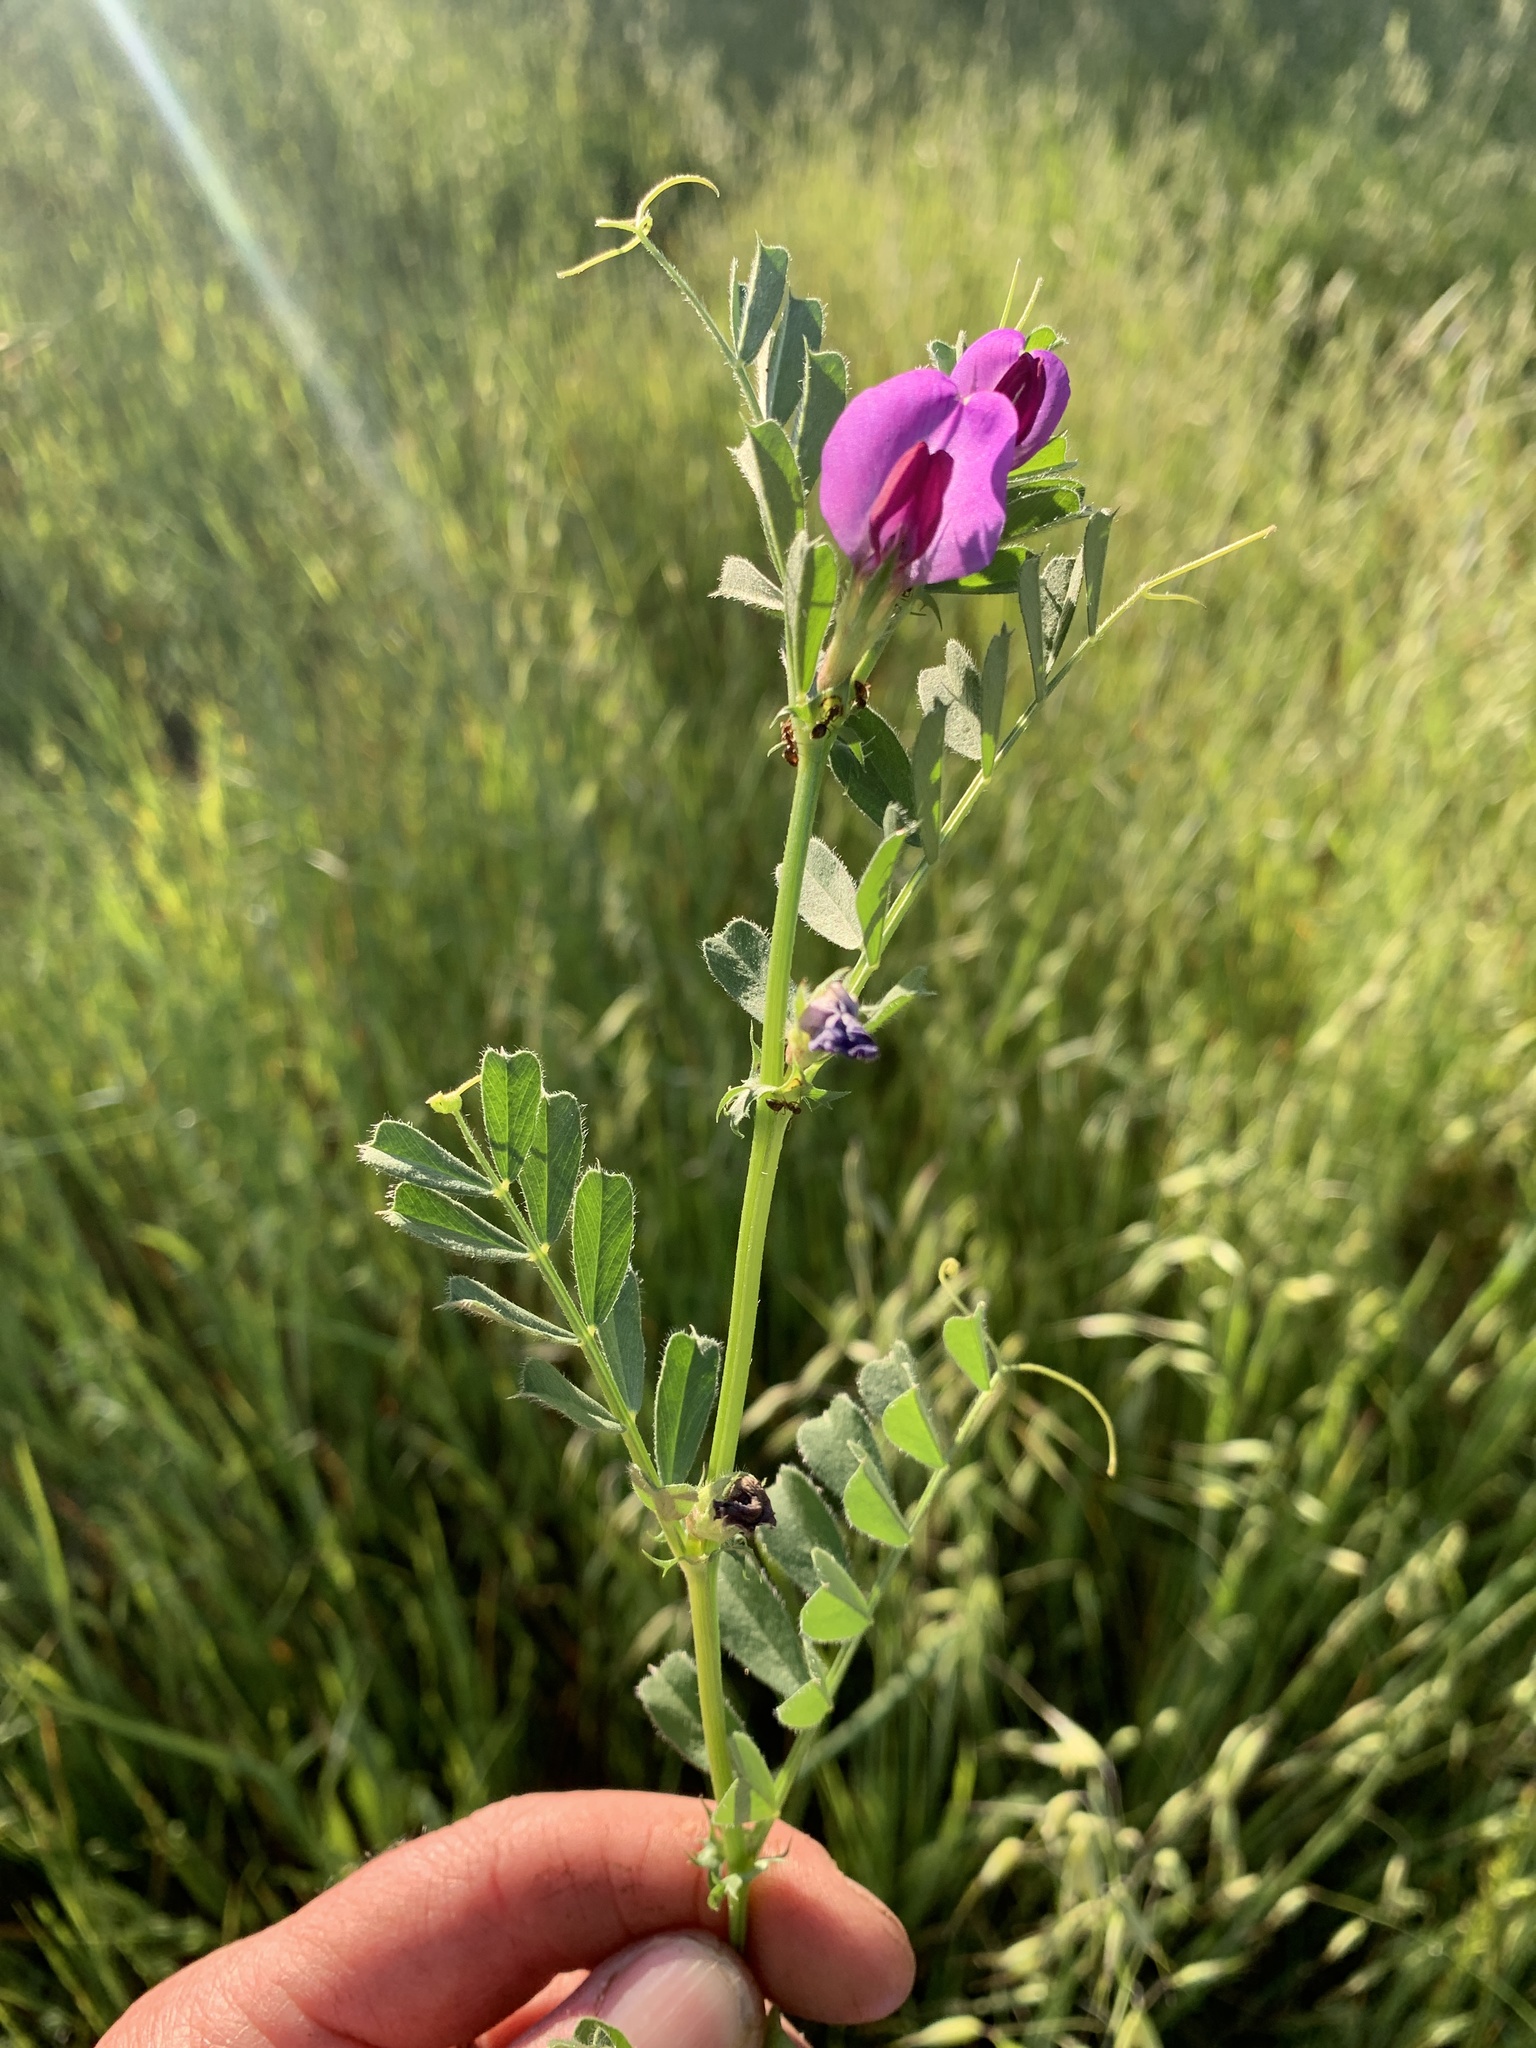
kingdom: Plantae
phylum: Tracheophyta
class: Magnoliopsida
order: Fabales
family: Fabaceae
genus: Vicia
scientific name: Vicia sativa
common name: Garden vetch
